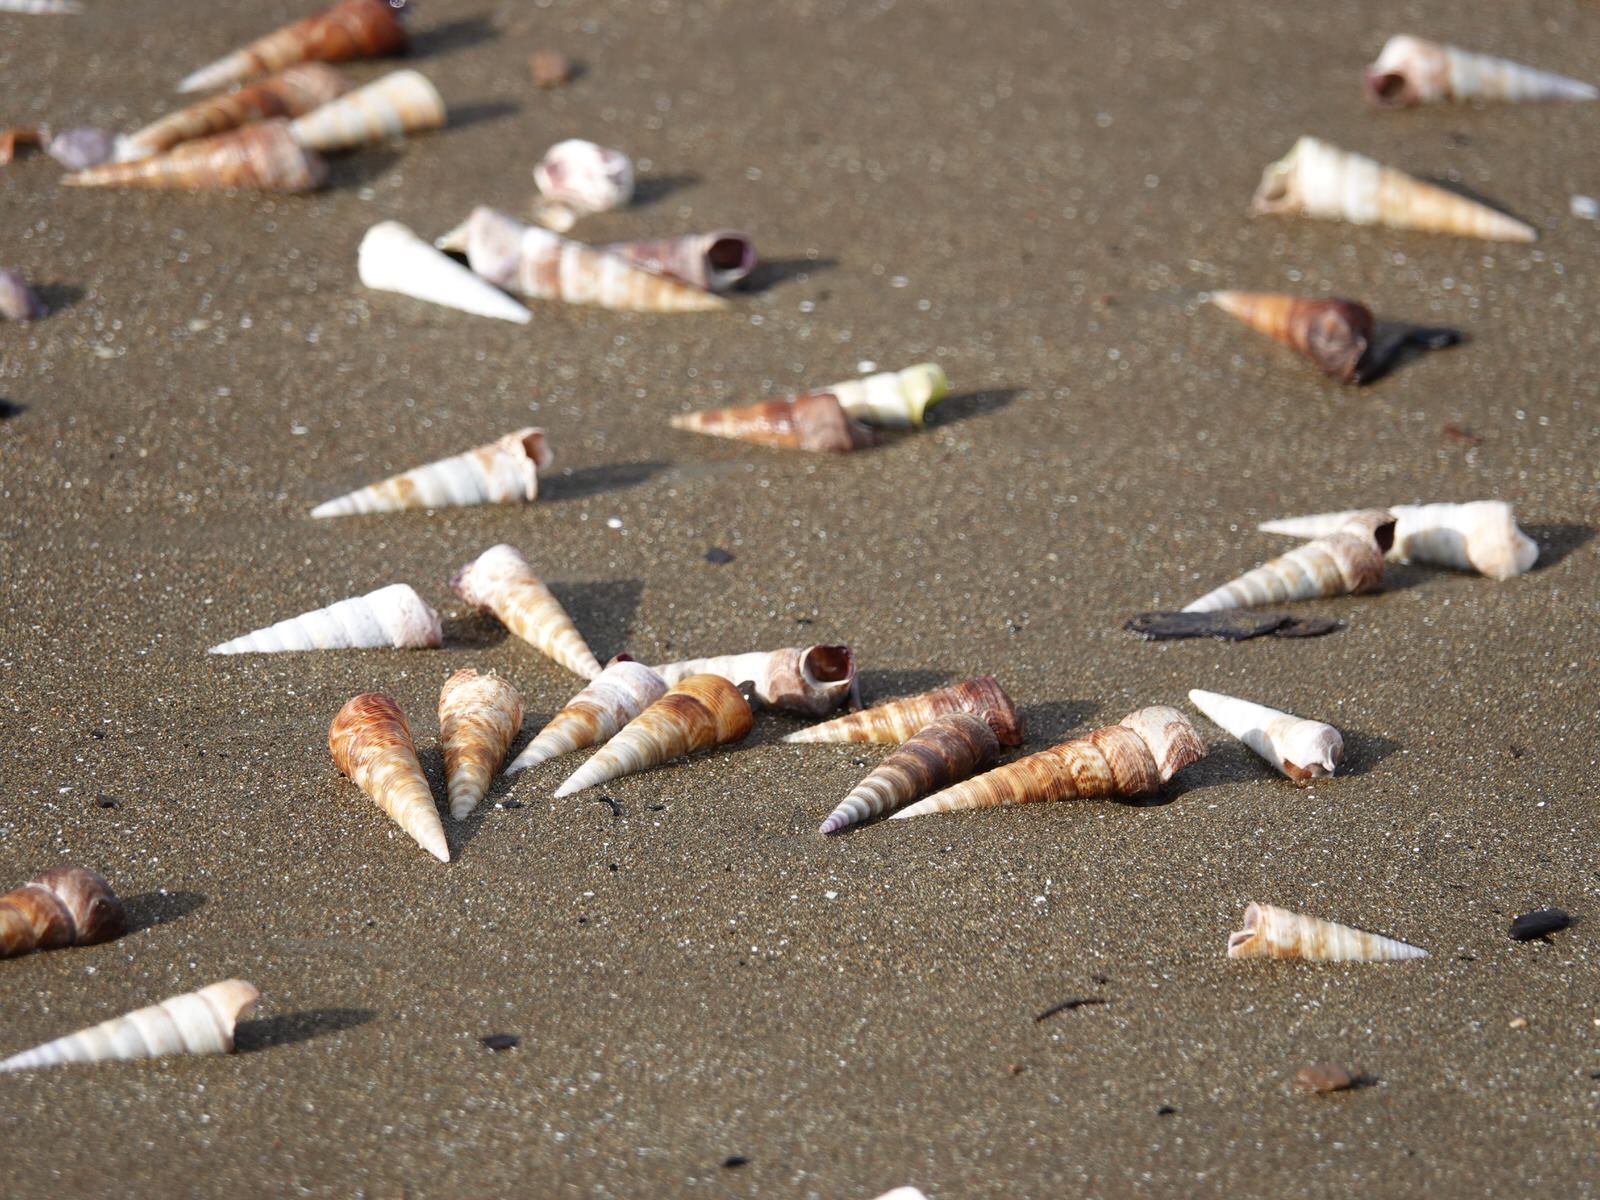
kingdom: Animalia
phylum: Mollusca
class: Gastropoda
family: Turritellidae
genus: Maoricolpus
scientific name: Maoricolpus roseus
